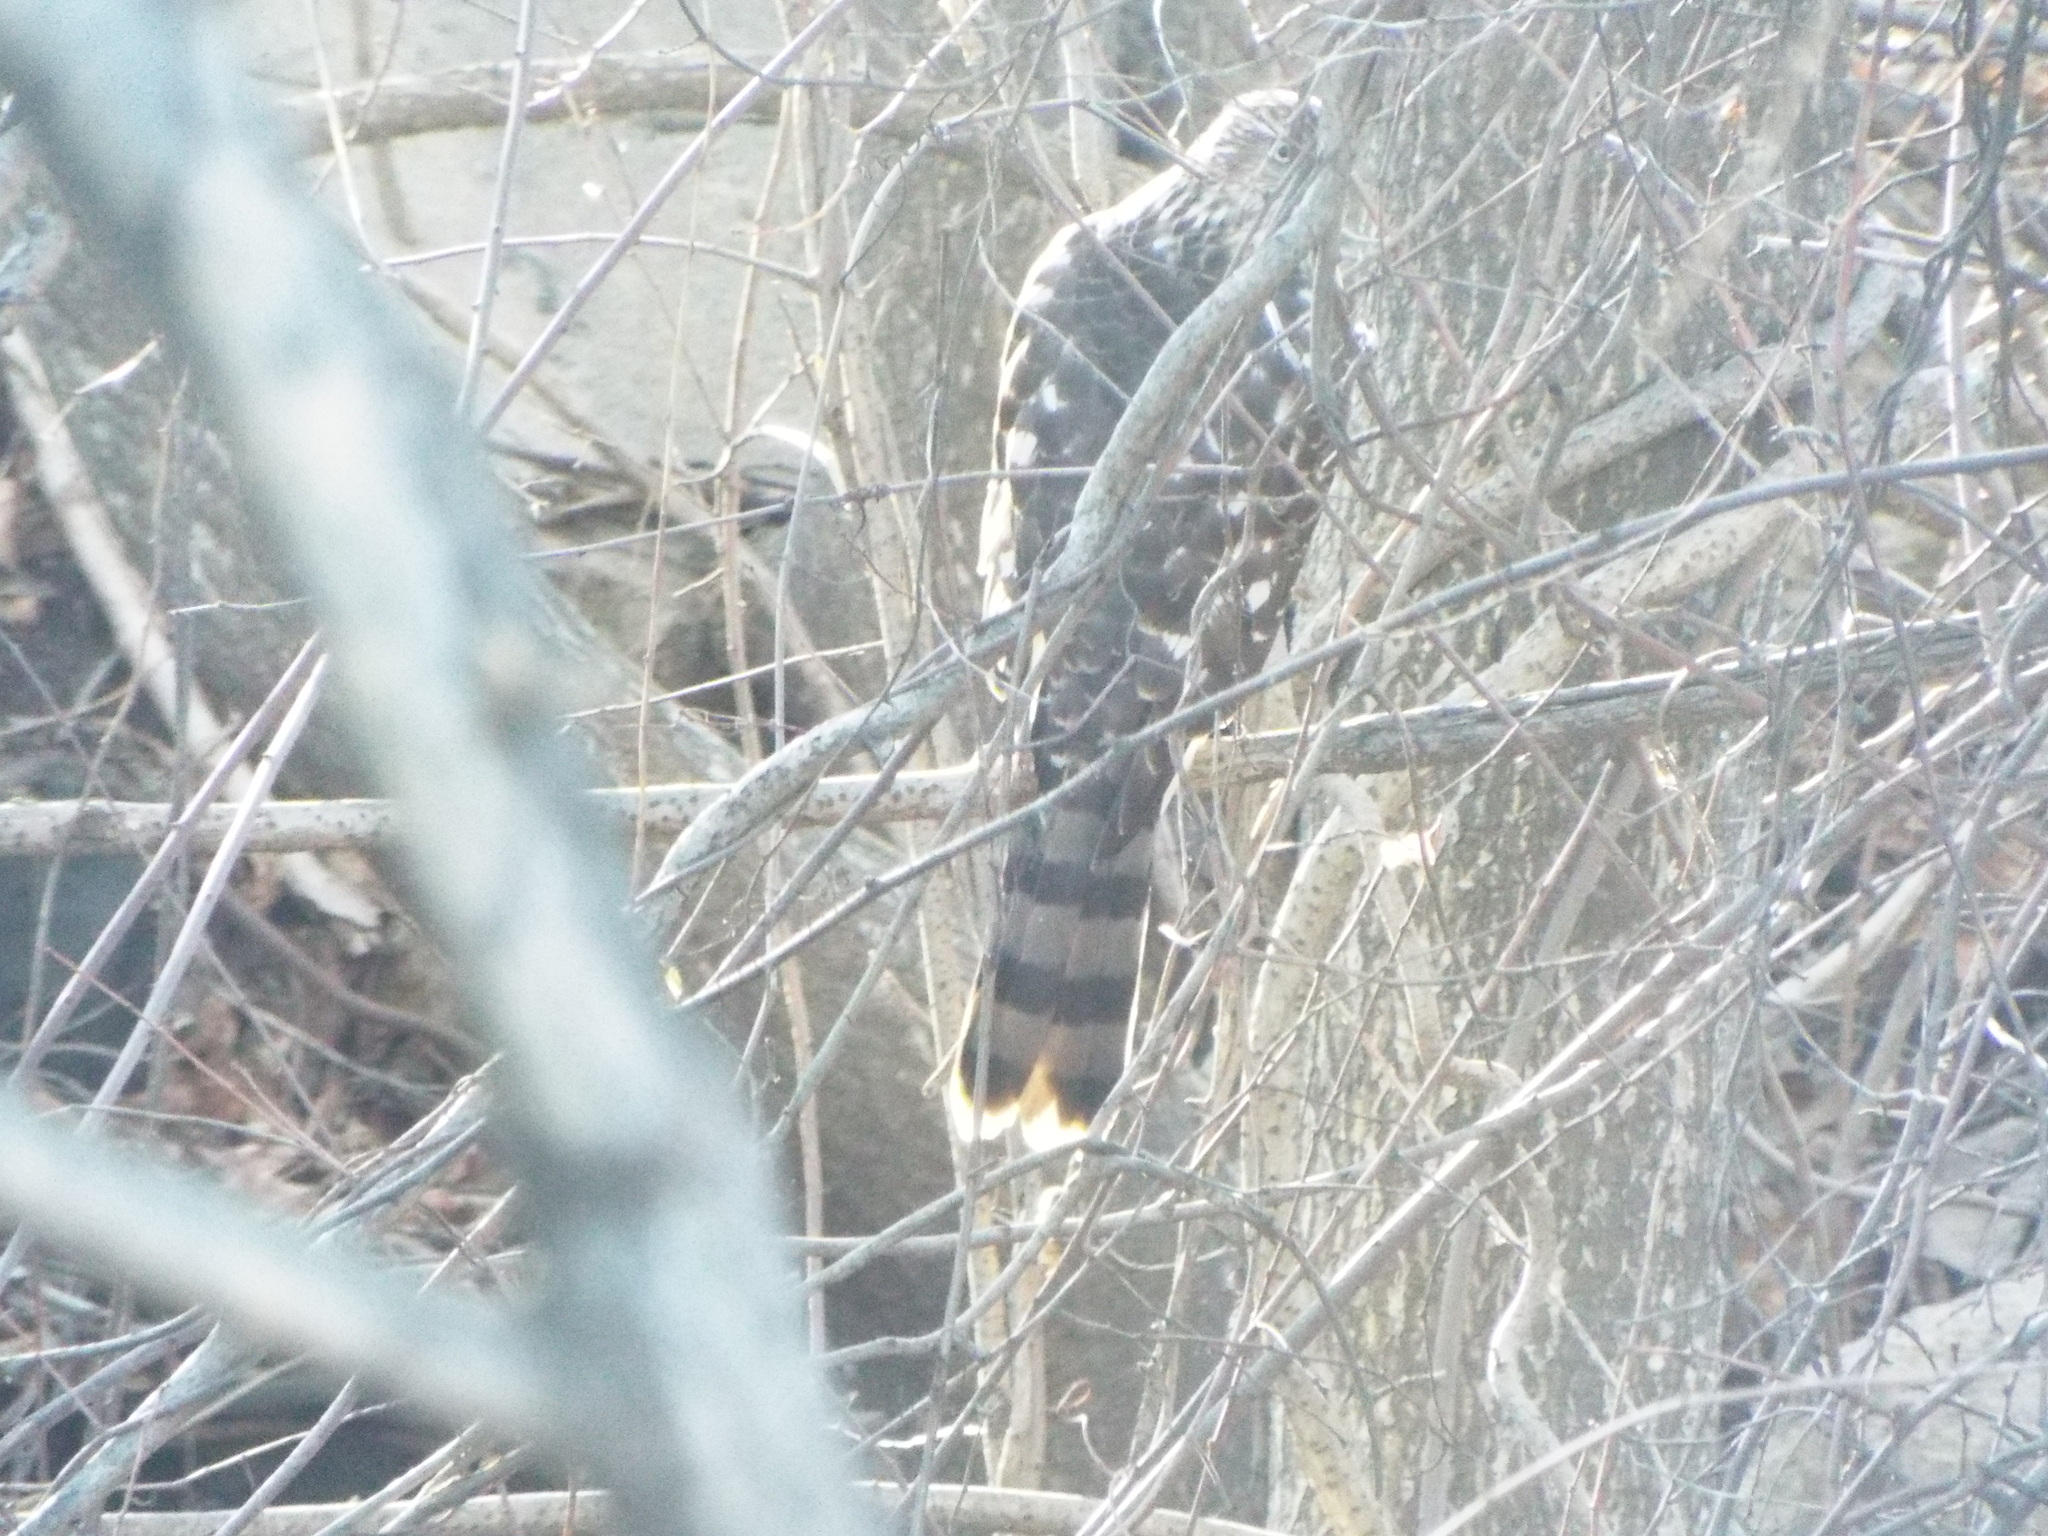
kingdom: Animalia
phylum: Chordata
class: Aves
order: Accipitriformes
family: Accipitridae
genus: Accipiter
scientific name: Accipiter cooperii
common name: Cooper's hawk
